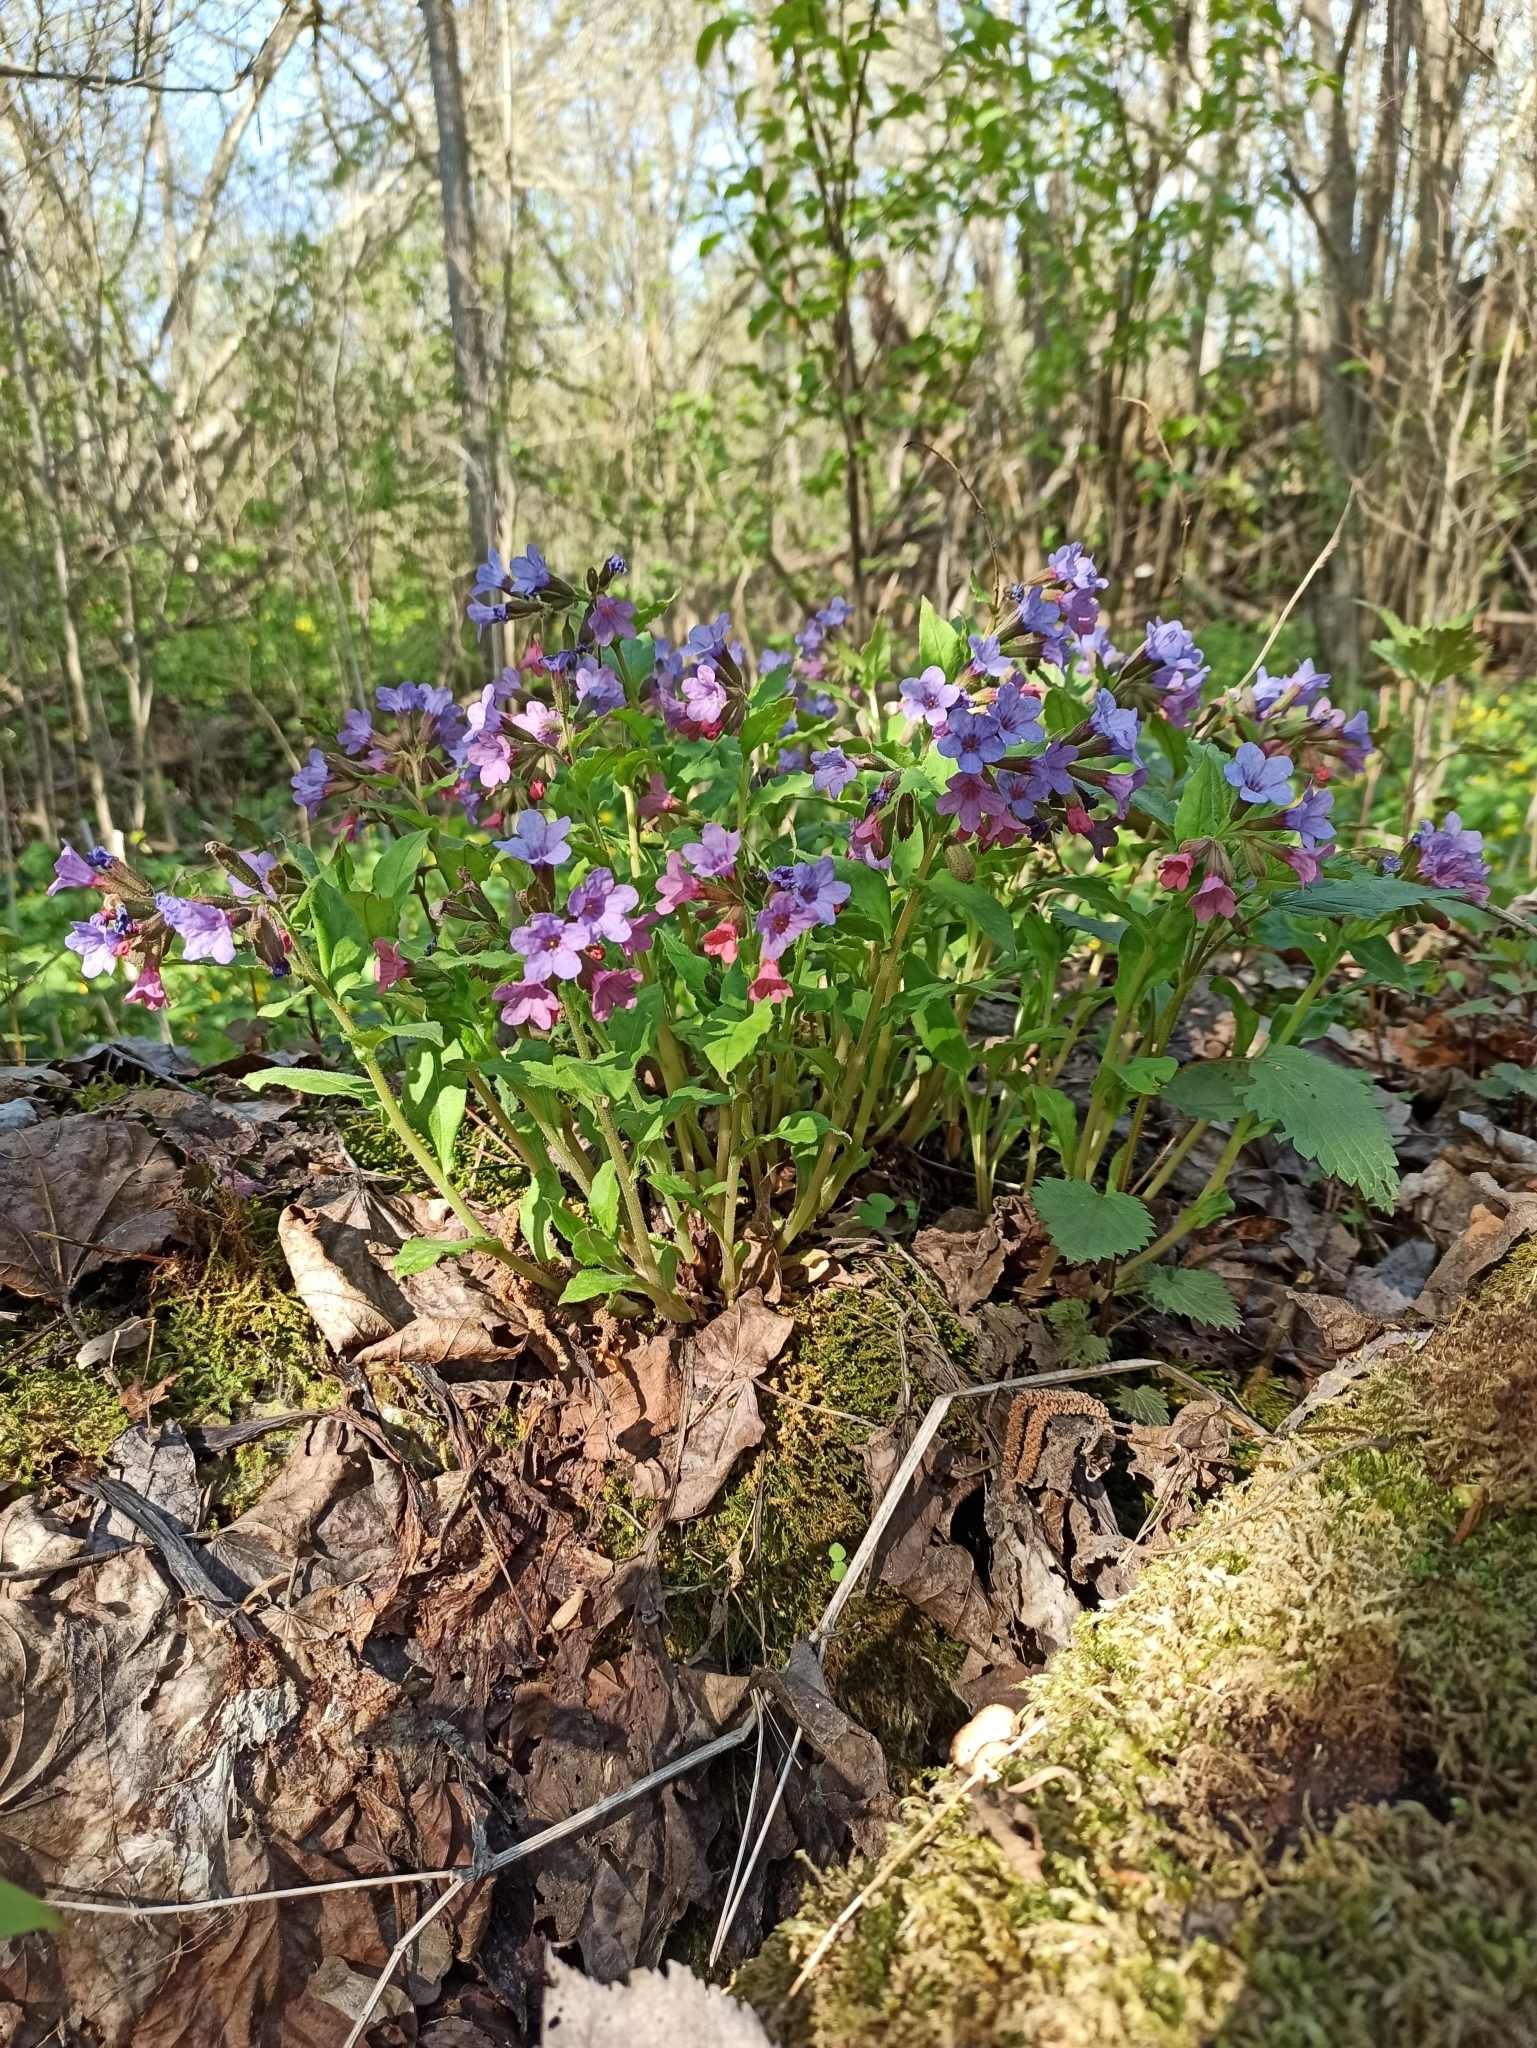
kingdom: Plantae
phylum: Tracheophyta
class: Magnoliopsida
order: Boraginales
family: Boraginaceae
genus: Pulmonaria
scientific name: Pulmonaria obscura
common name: Suffolk lungwort
